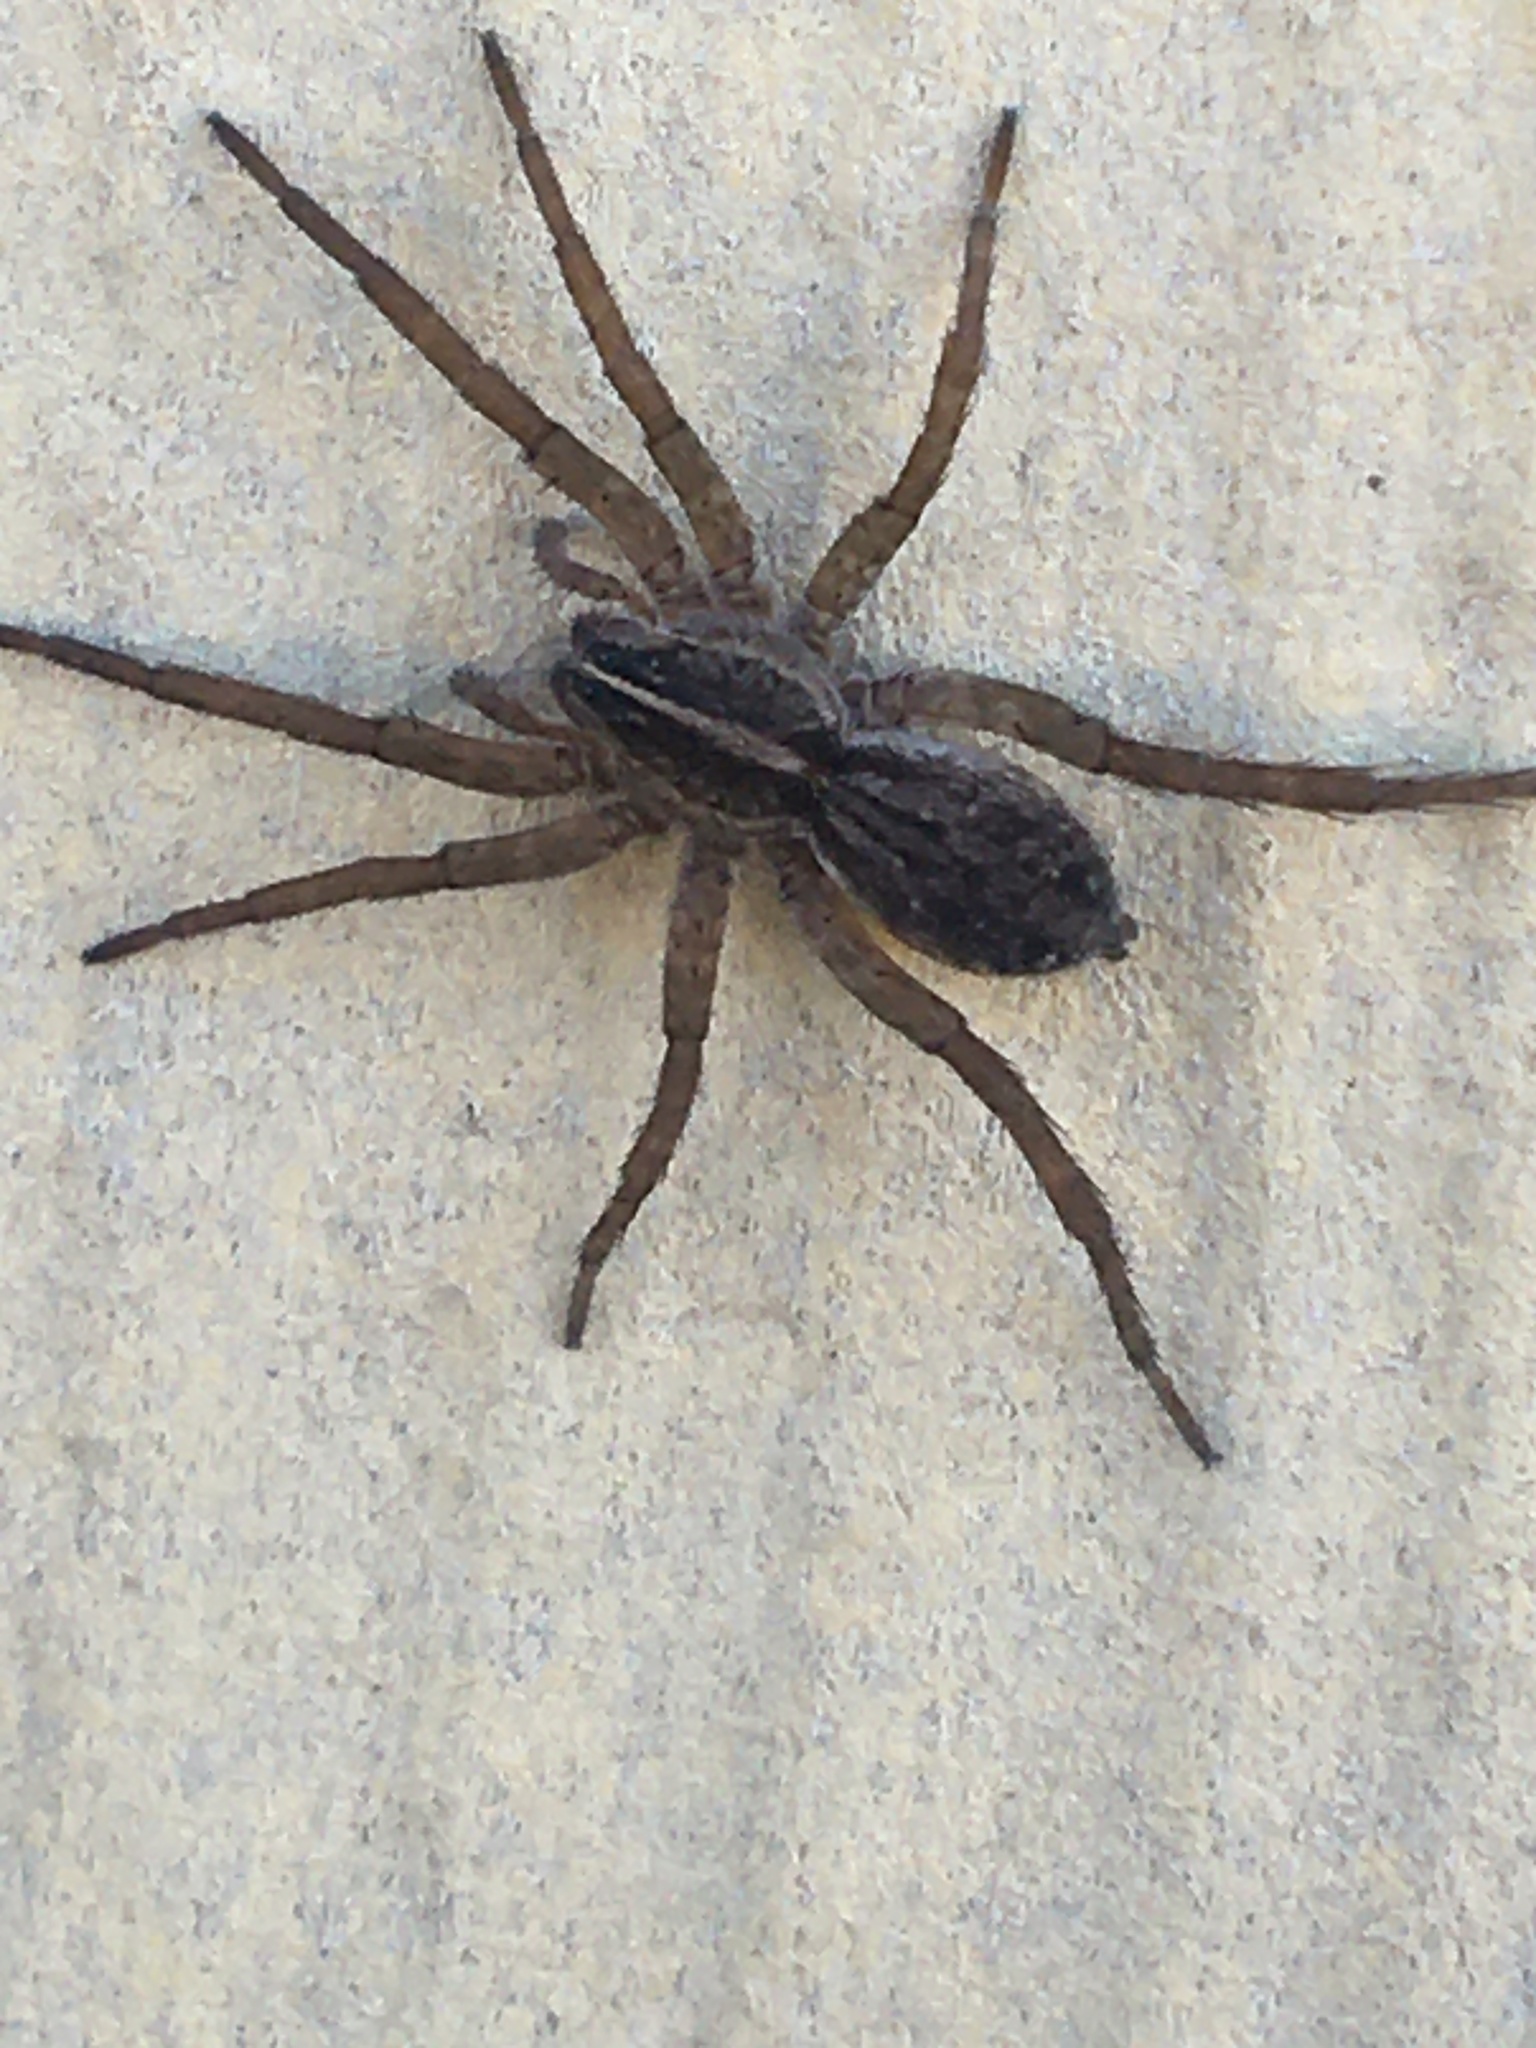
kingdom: Animalia
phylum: Arthropoda
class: Arachnida
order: Araneae
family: Lycosidae
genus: Tigrosa
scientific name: Tigrosa helluo
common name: Wetland giant wolf spider
